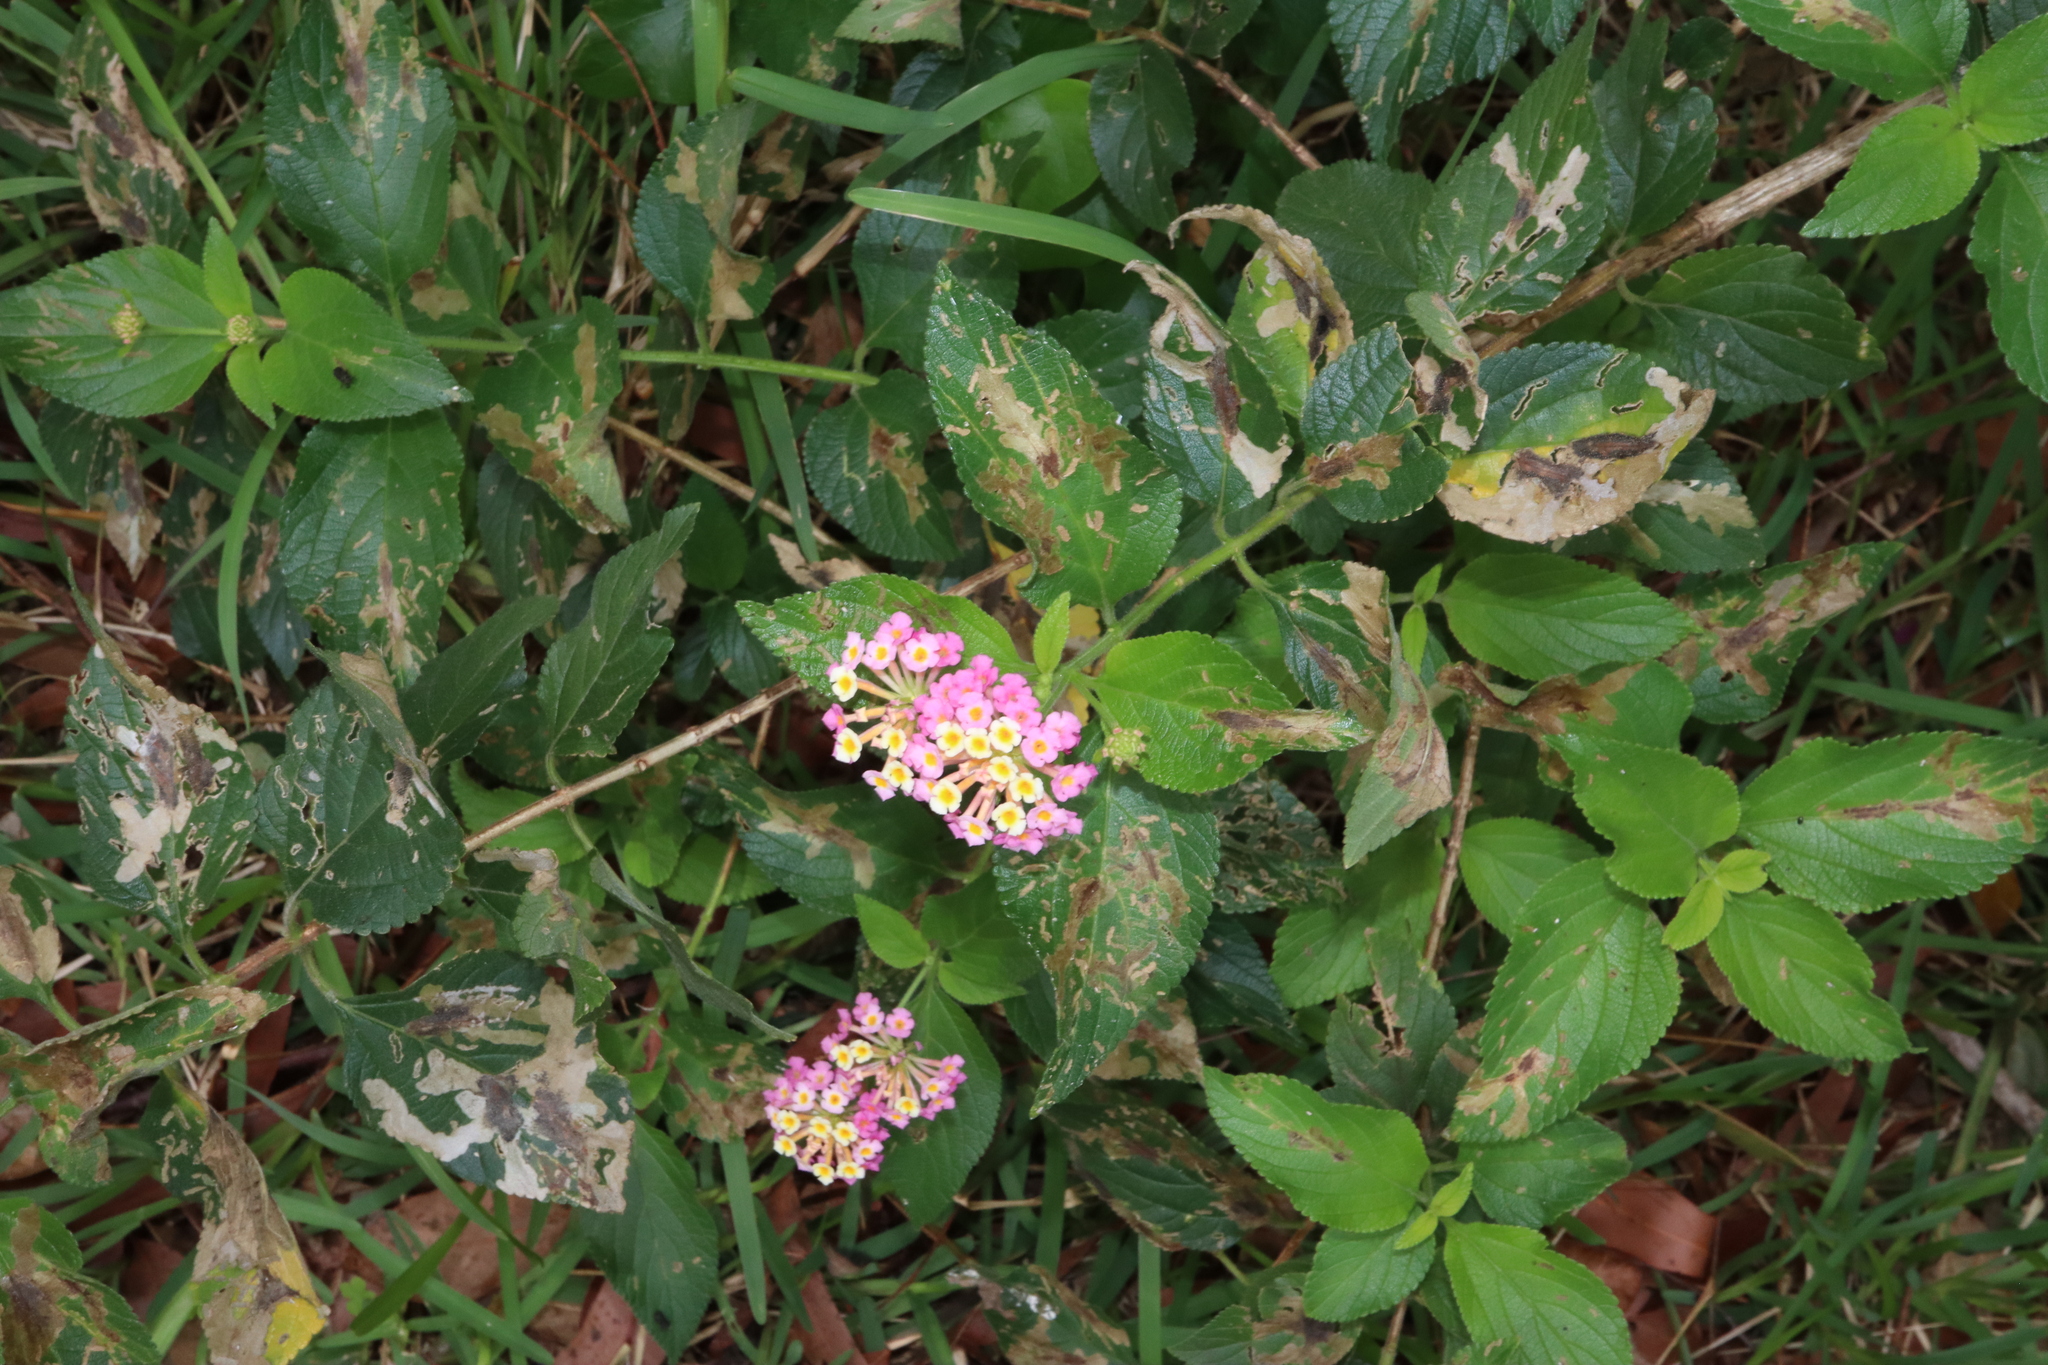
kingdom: Plantae
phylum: Tracheophyta
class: Magnoliopsida
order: Lamiales
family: Verbenaceae
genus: Lantana
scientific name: Lantana camara
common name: Lantana
